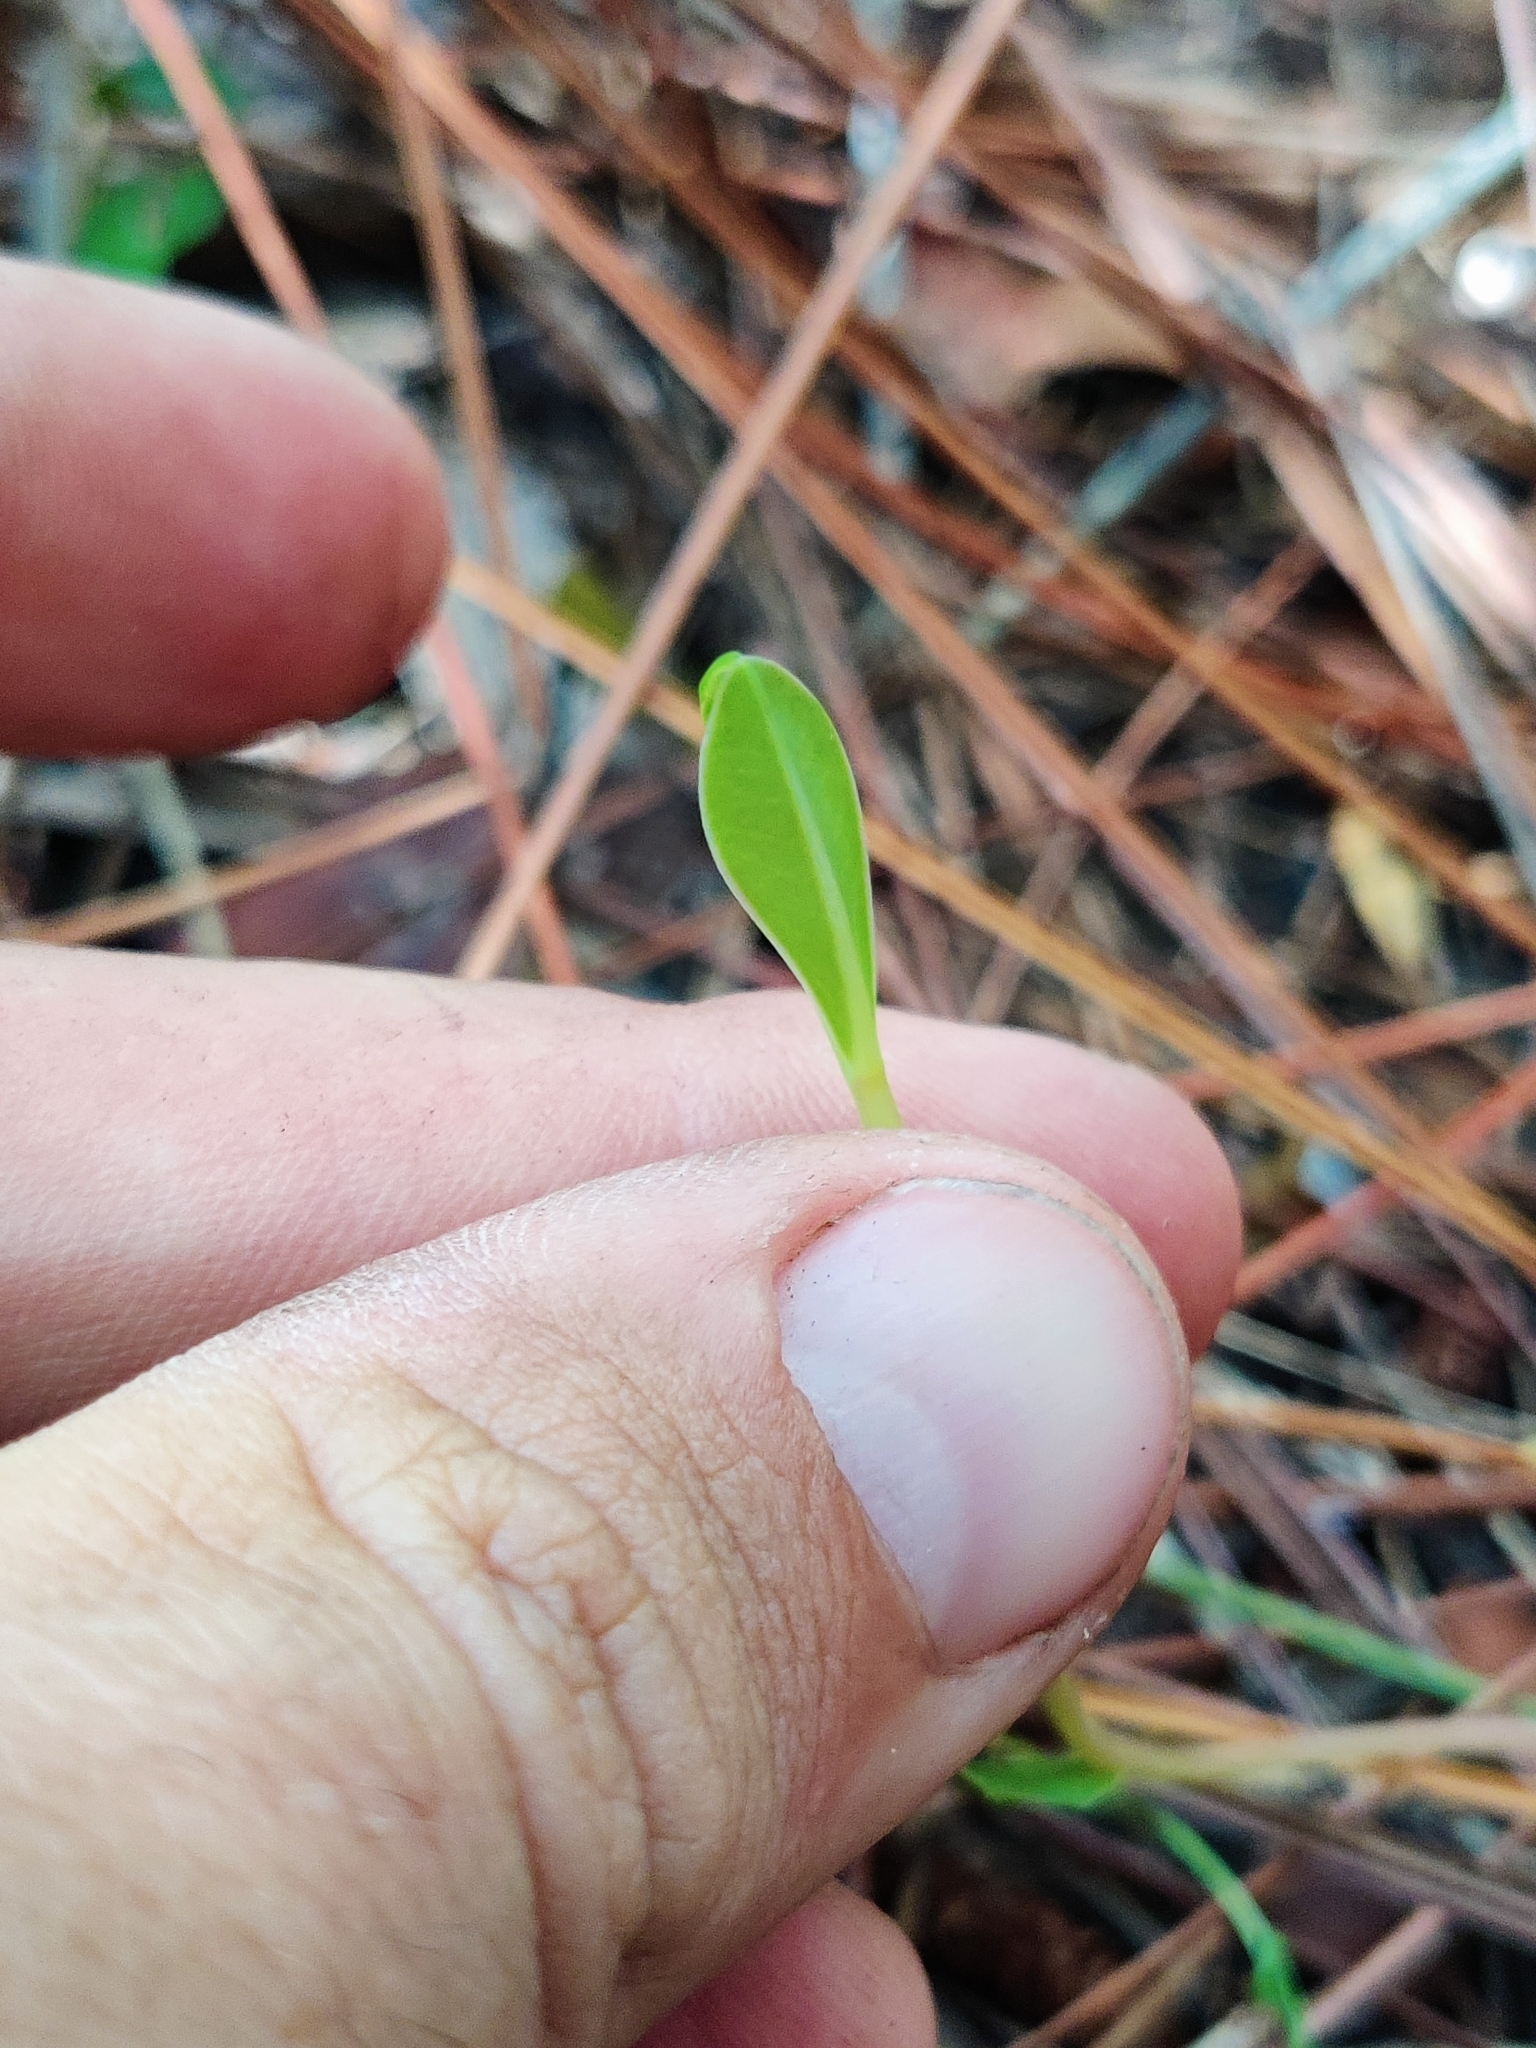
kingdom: Plantae
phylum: Tracheophyta
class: Magnoliopsida
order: Malpighiales
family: Euphorbiaceae
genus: Euphorbia
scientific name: Euphorbia telephioides
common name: Telephus spurge
